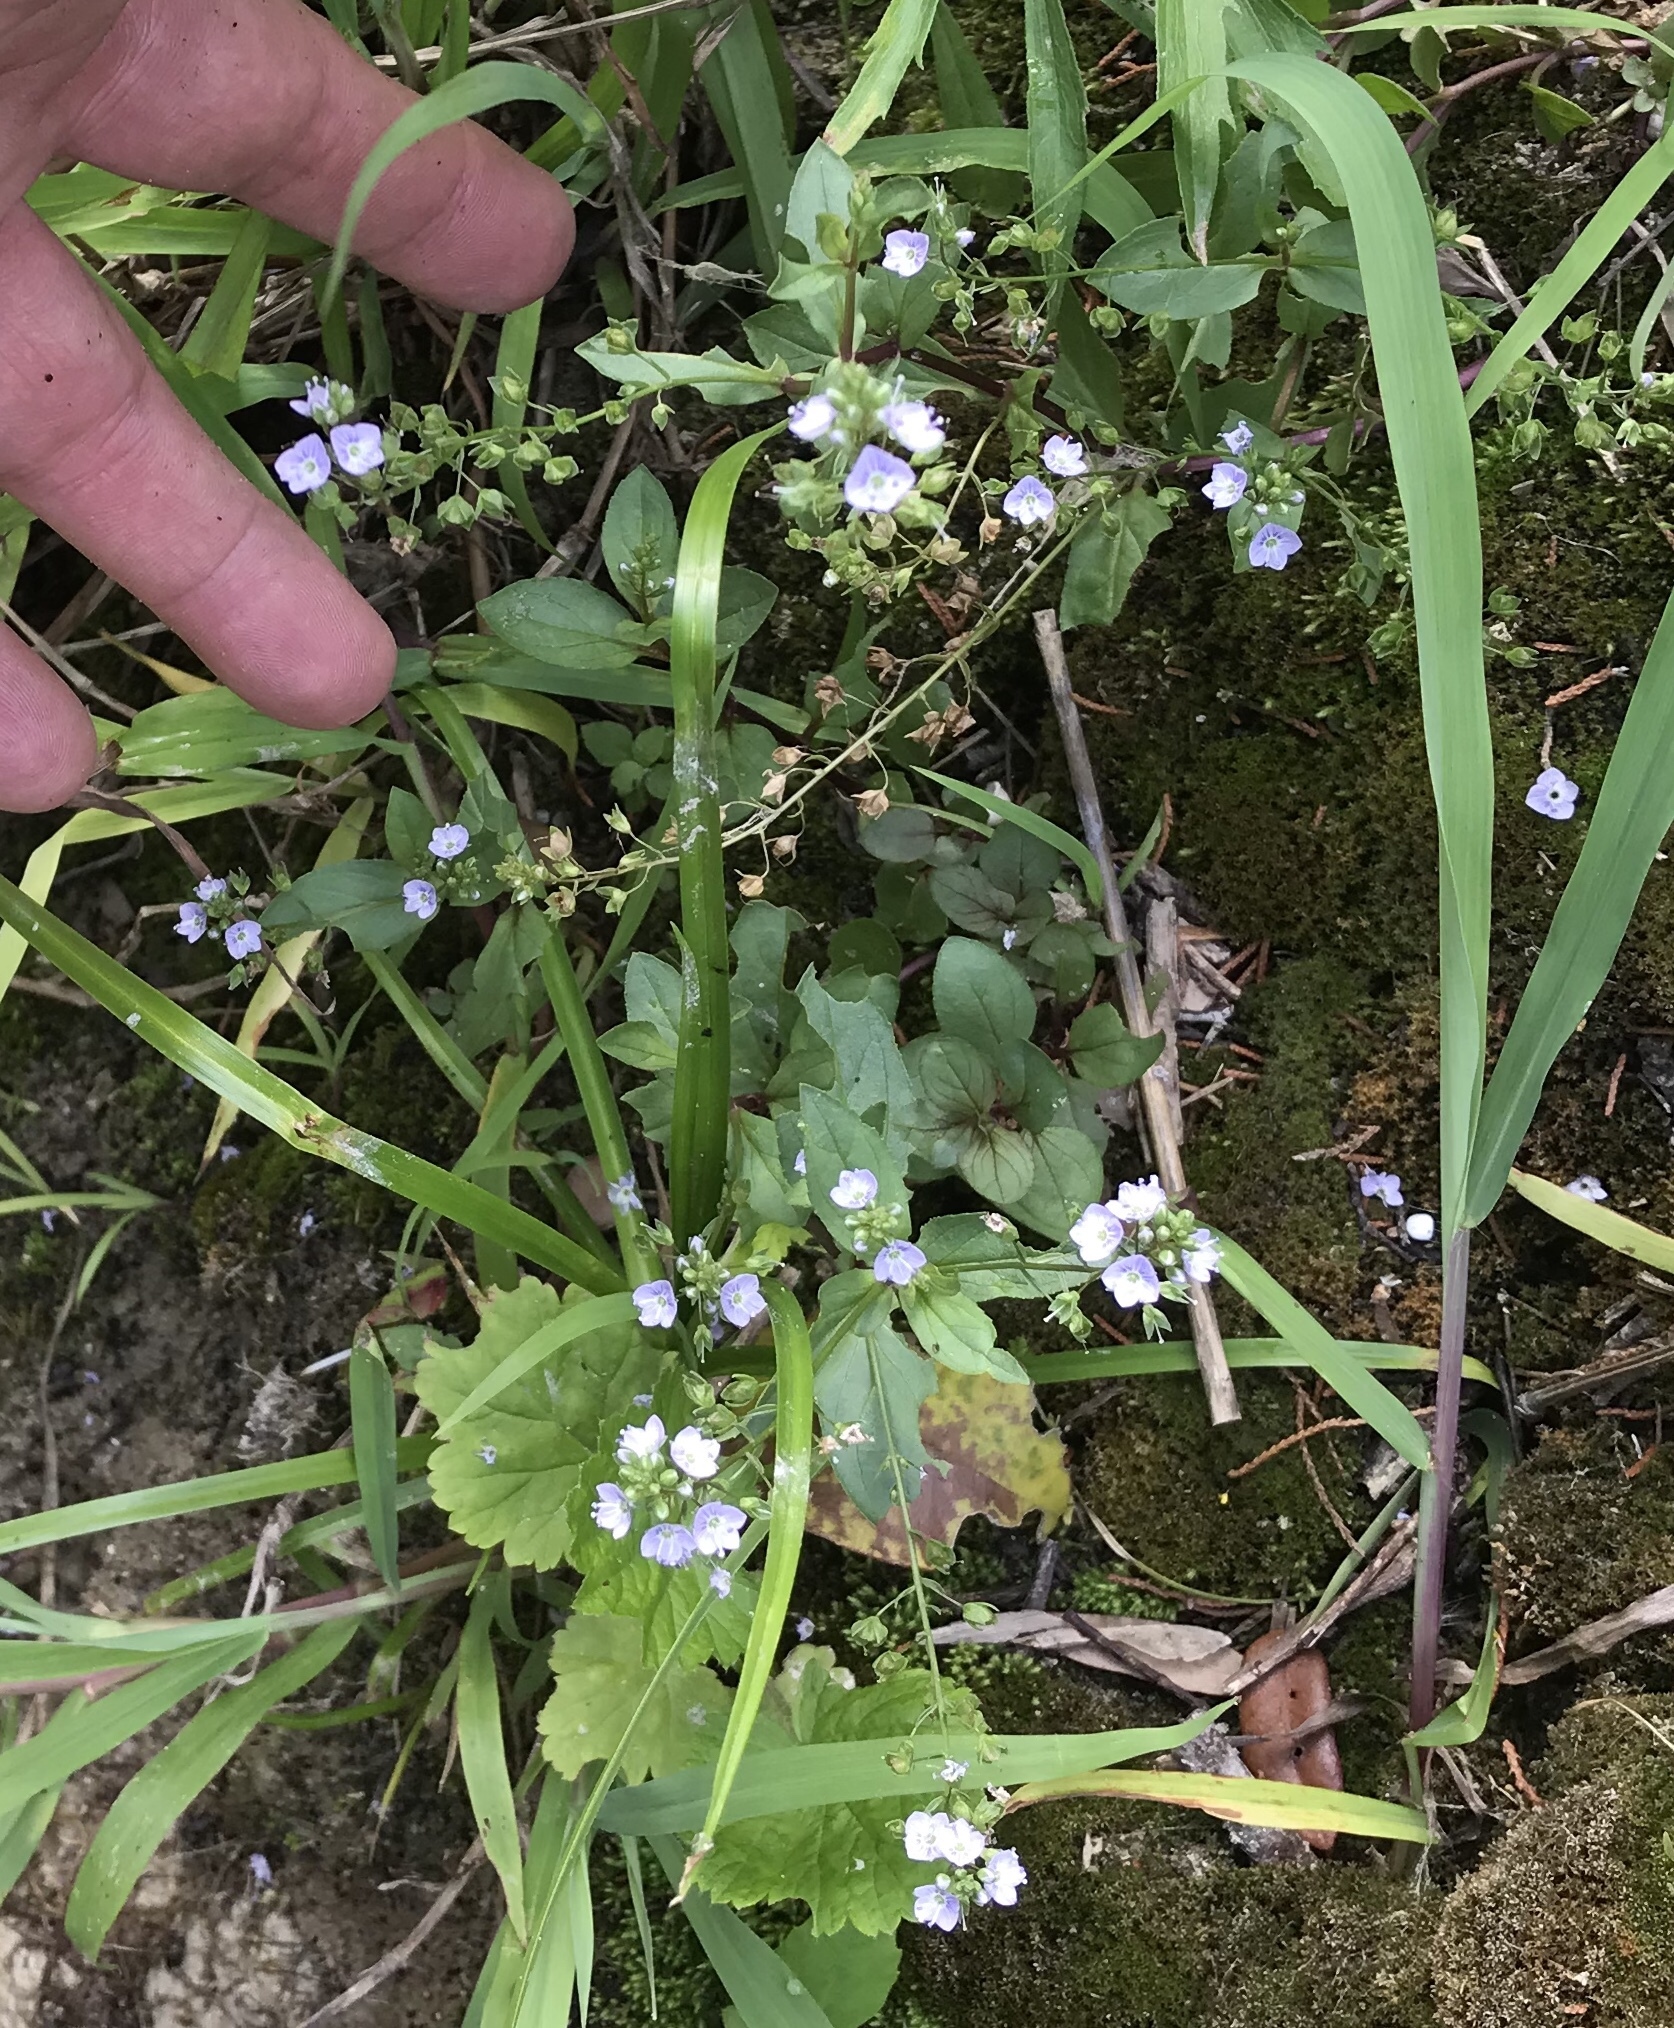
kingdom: Plantae
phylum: Tracheophyta
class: Magnoliopsida
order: Lamiales
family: Plantaginaceae
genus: Veronica
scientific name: Veronica anagallis-aquatica
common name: Water speedwell
